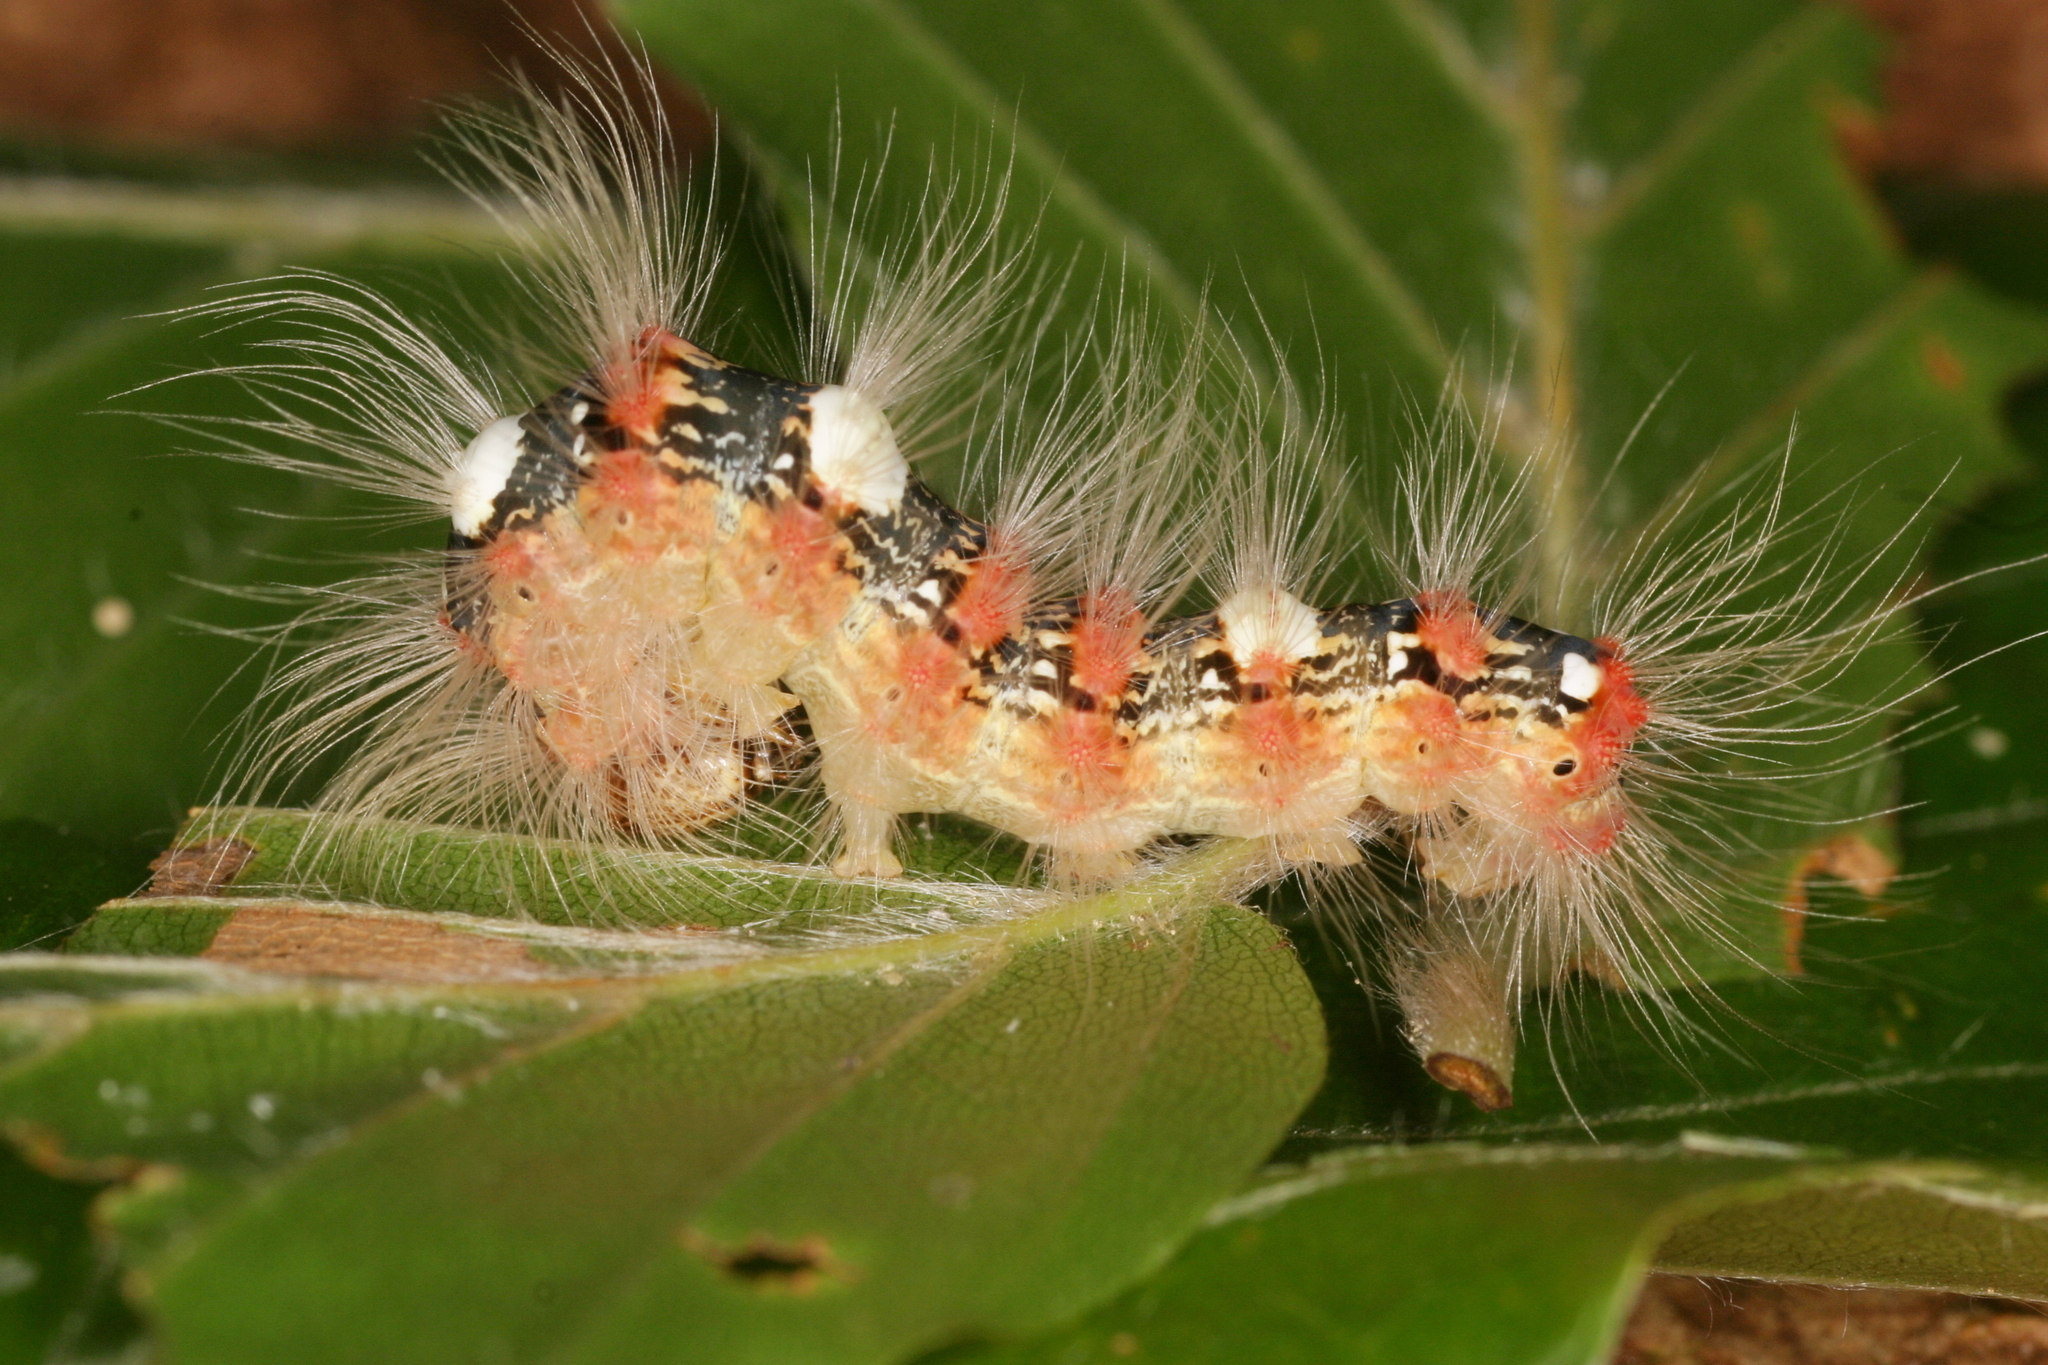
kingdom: Animalia
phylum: Arthropoda
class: Insecta
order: Lepidoptera
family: Noctuidae
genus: Moma
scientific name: Moma alpium
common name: Scarce merveille du jour
